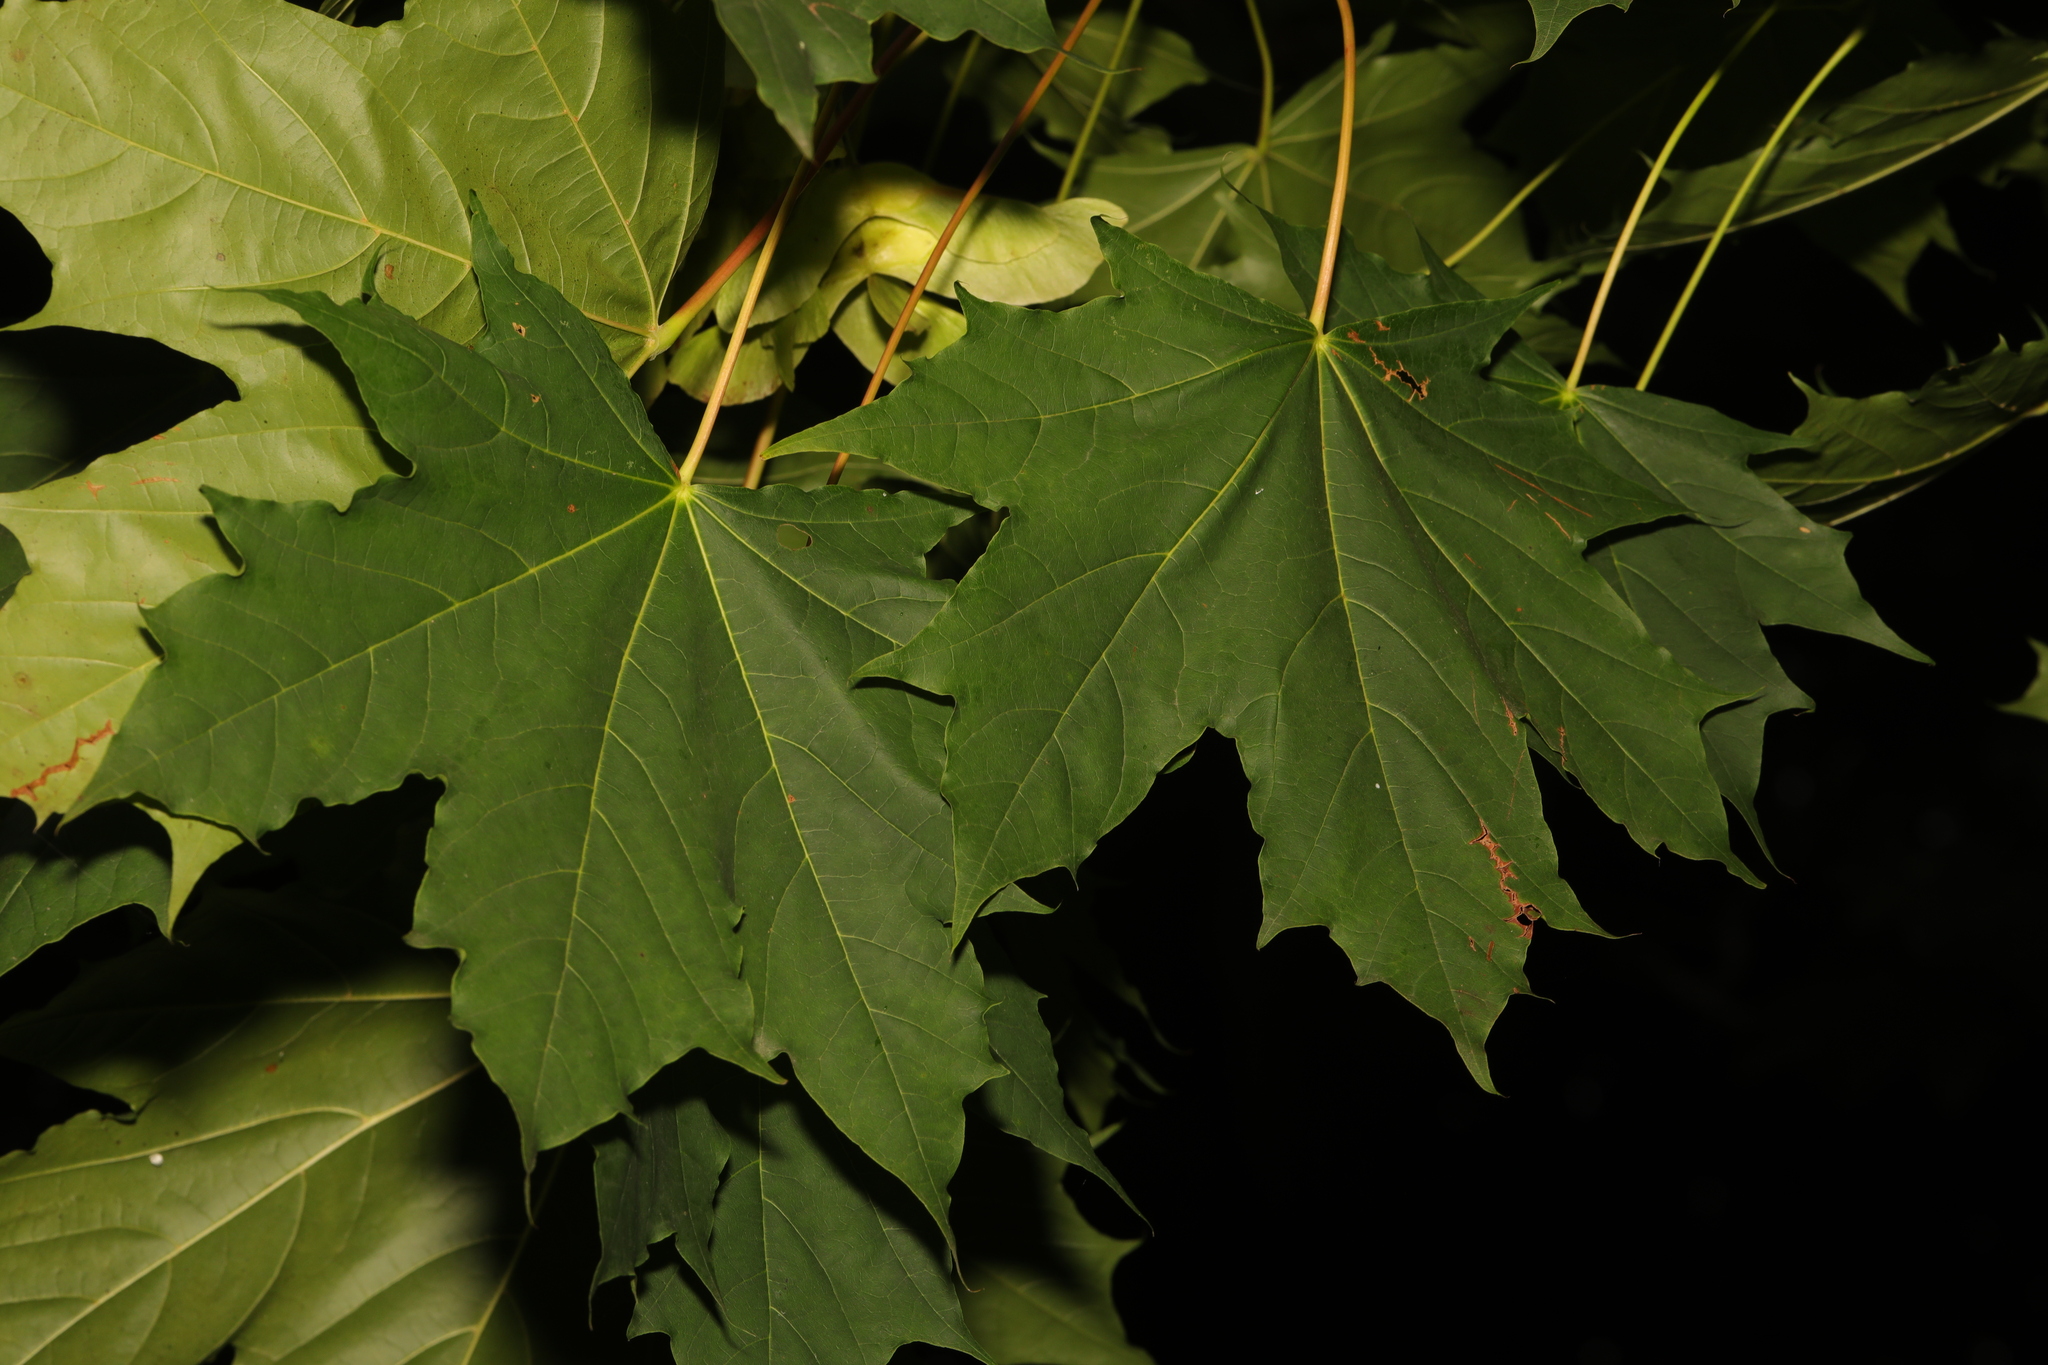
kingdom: Plantae
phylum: Tracheophyta
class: Magnoliopsida
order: Sapindales
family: Sapindaceae
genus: Acer
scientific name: Acer platanoides
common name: Norway maple
